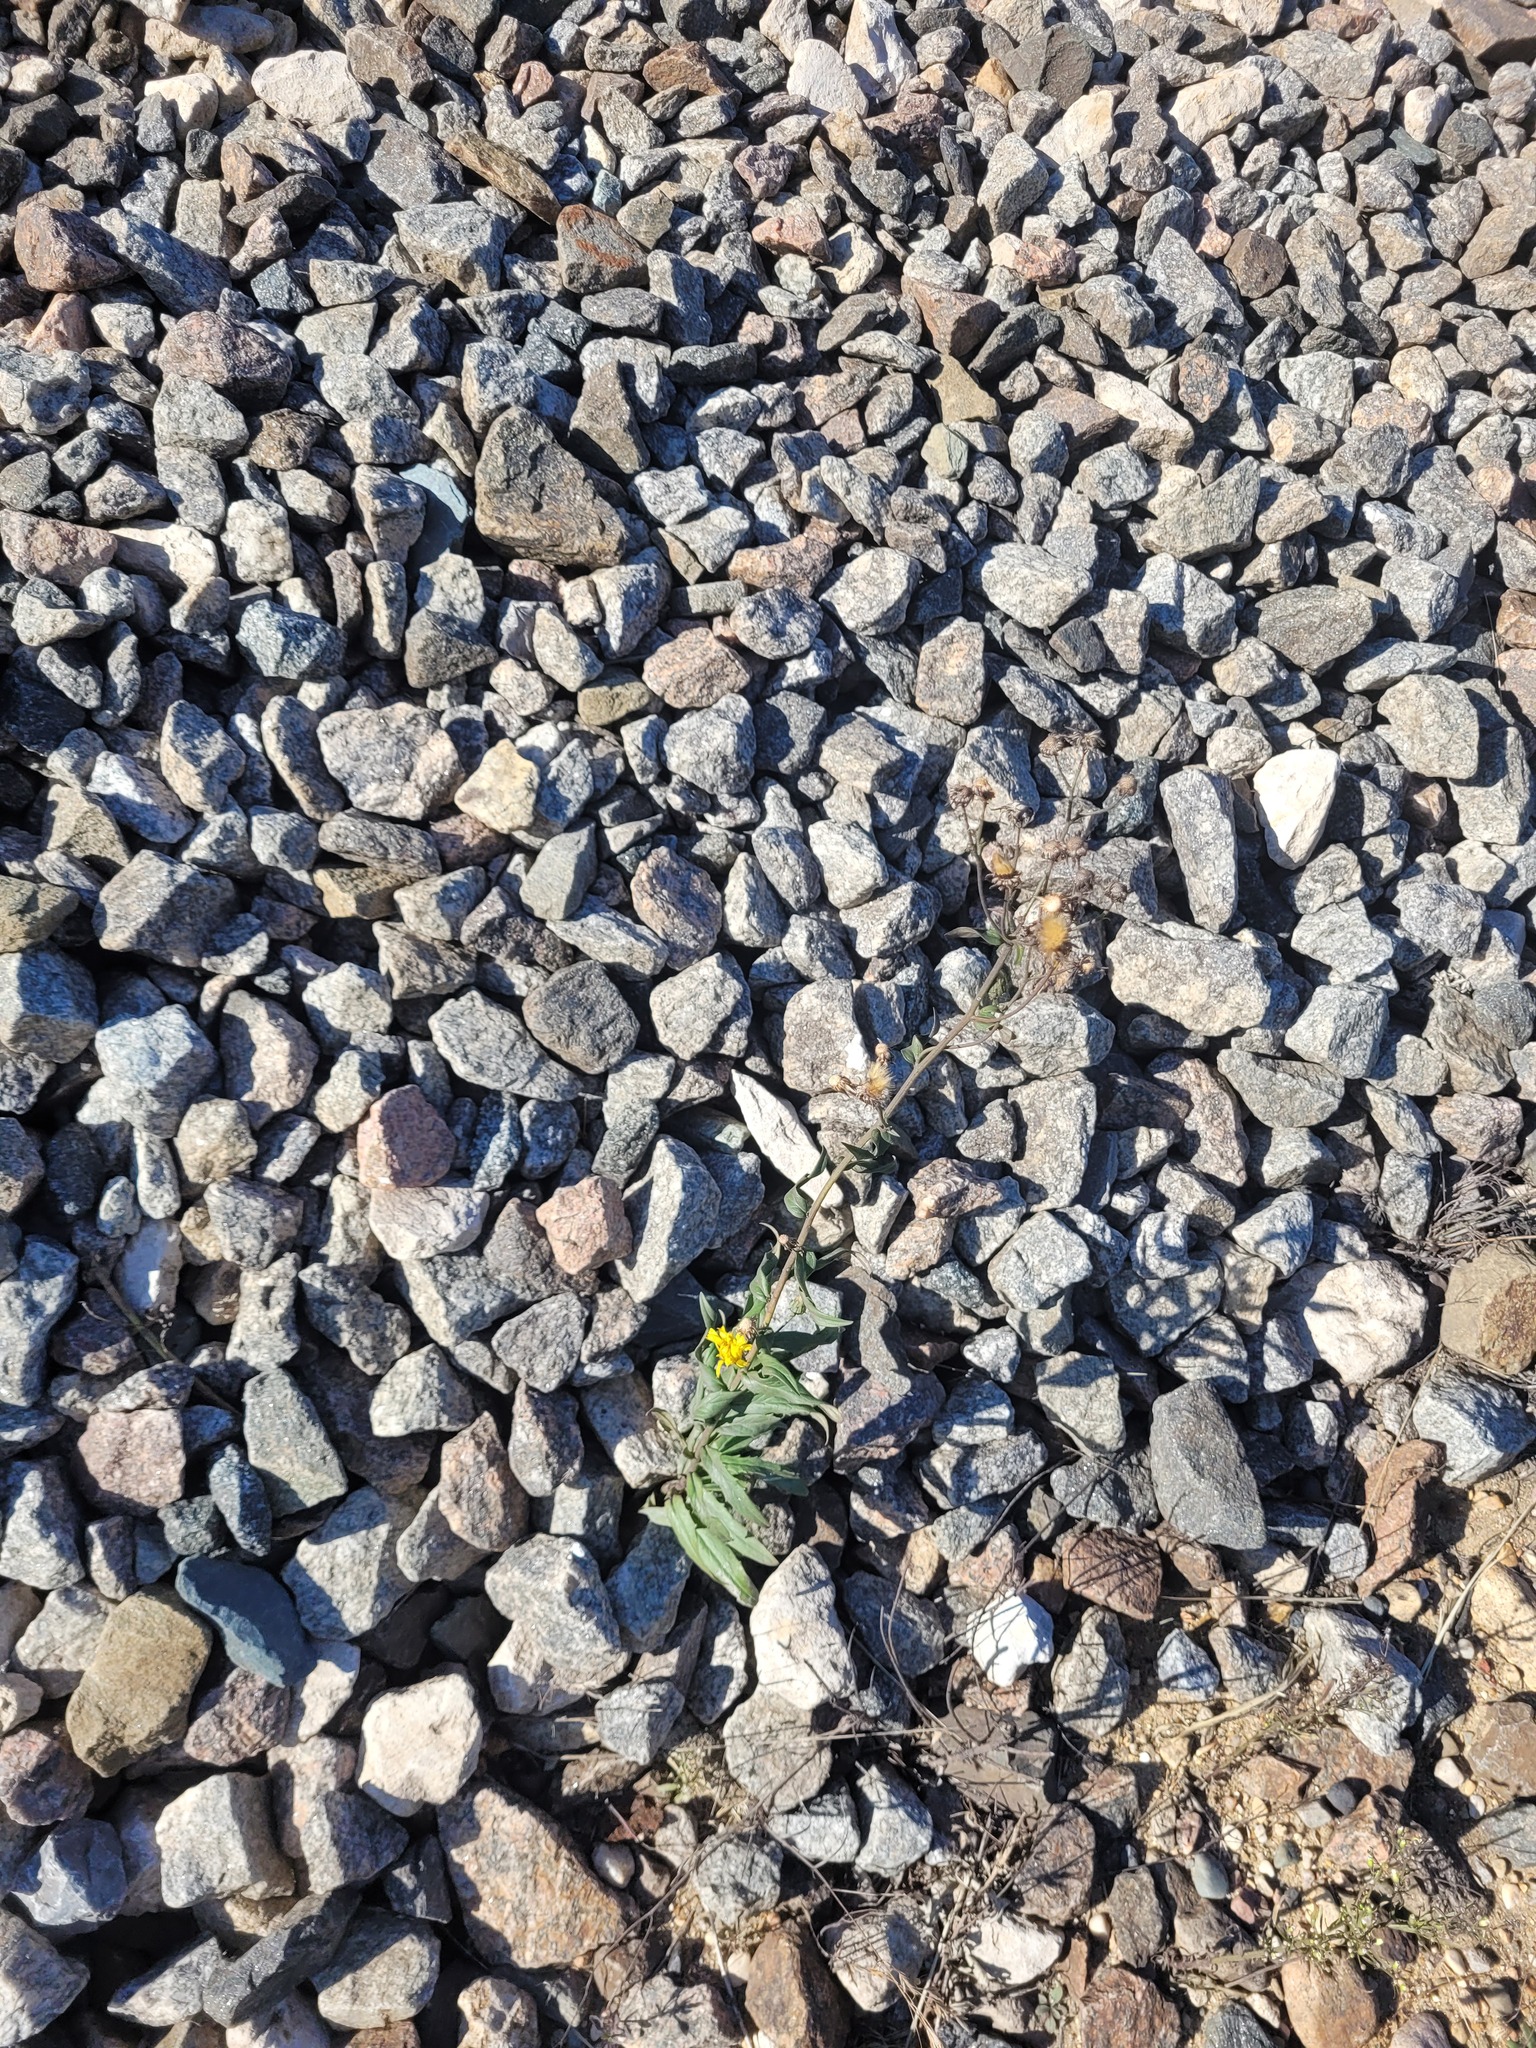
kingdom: Plantae
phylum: Tracheophyta
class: Magnoliopsida
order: Asterales
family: Asteraceae
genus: Hieracium
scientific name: Hieracium umbellatum
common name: Northern hawkweed
